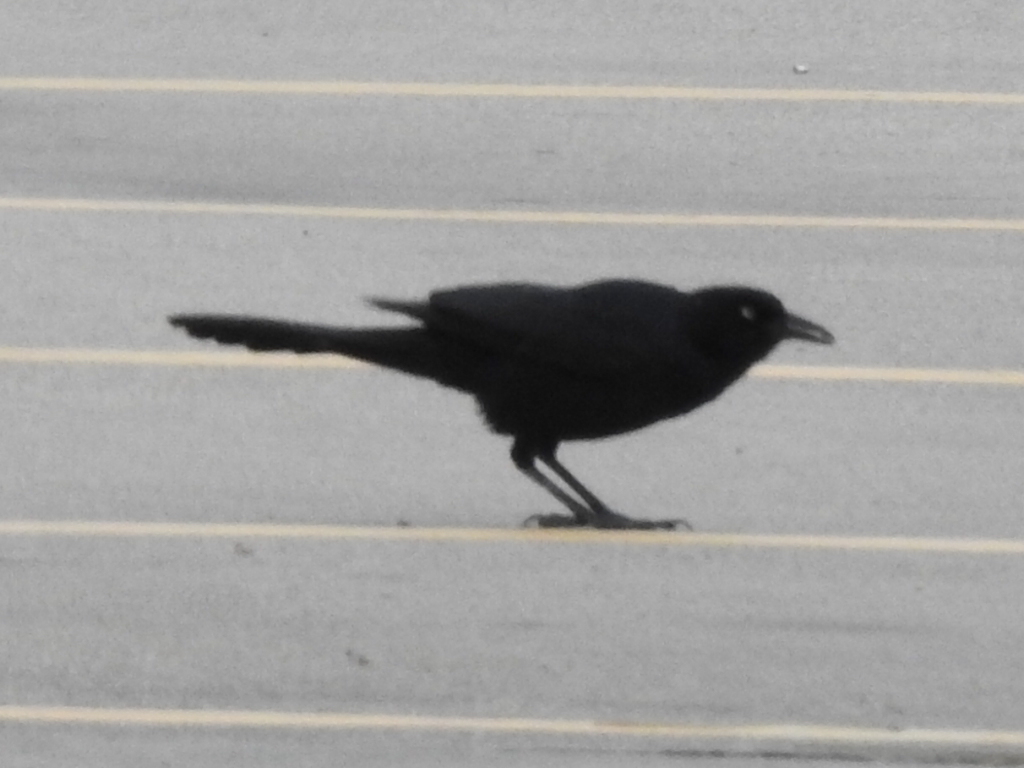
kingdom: Animalia
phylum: Chordata
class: Aves
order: Passeriformes
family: Icteridae
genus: Quiscalus
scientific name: Quiscalus mexicanus
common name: Great-tailed grackle
